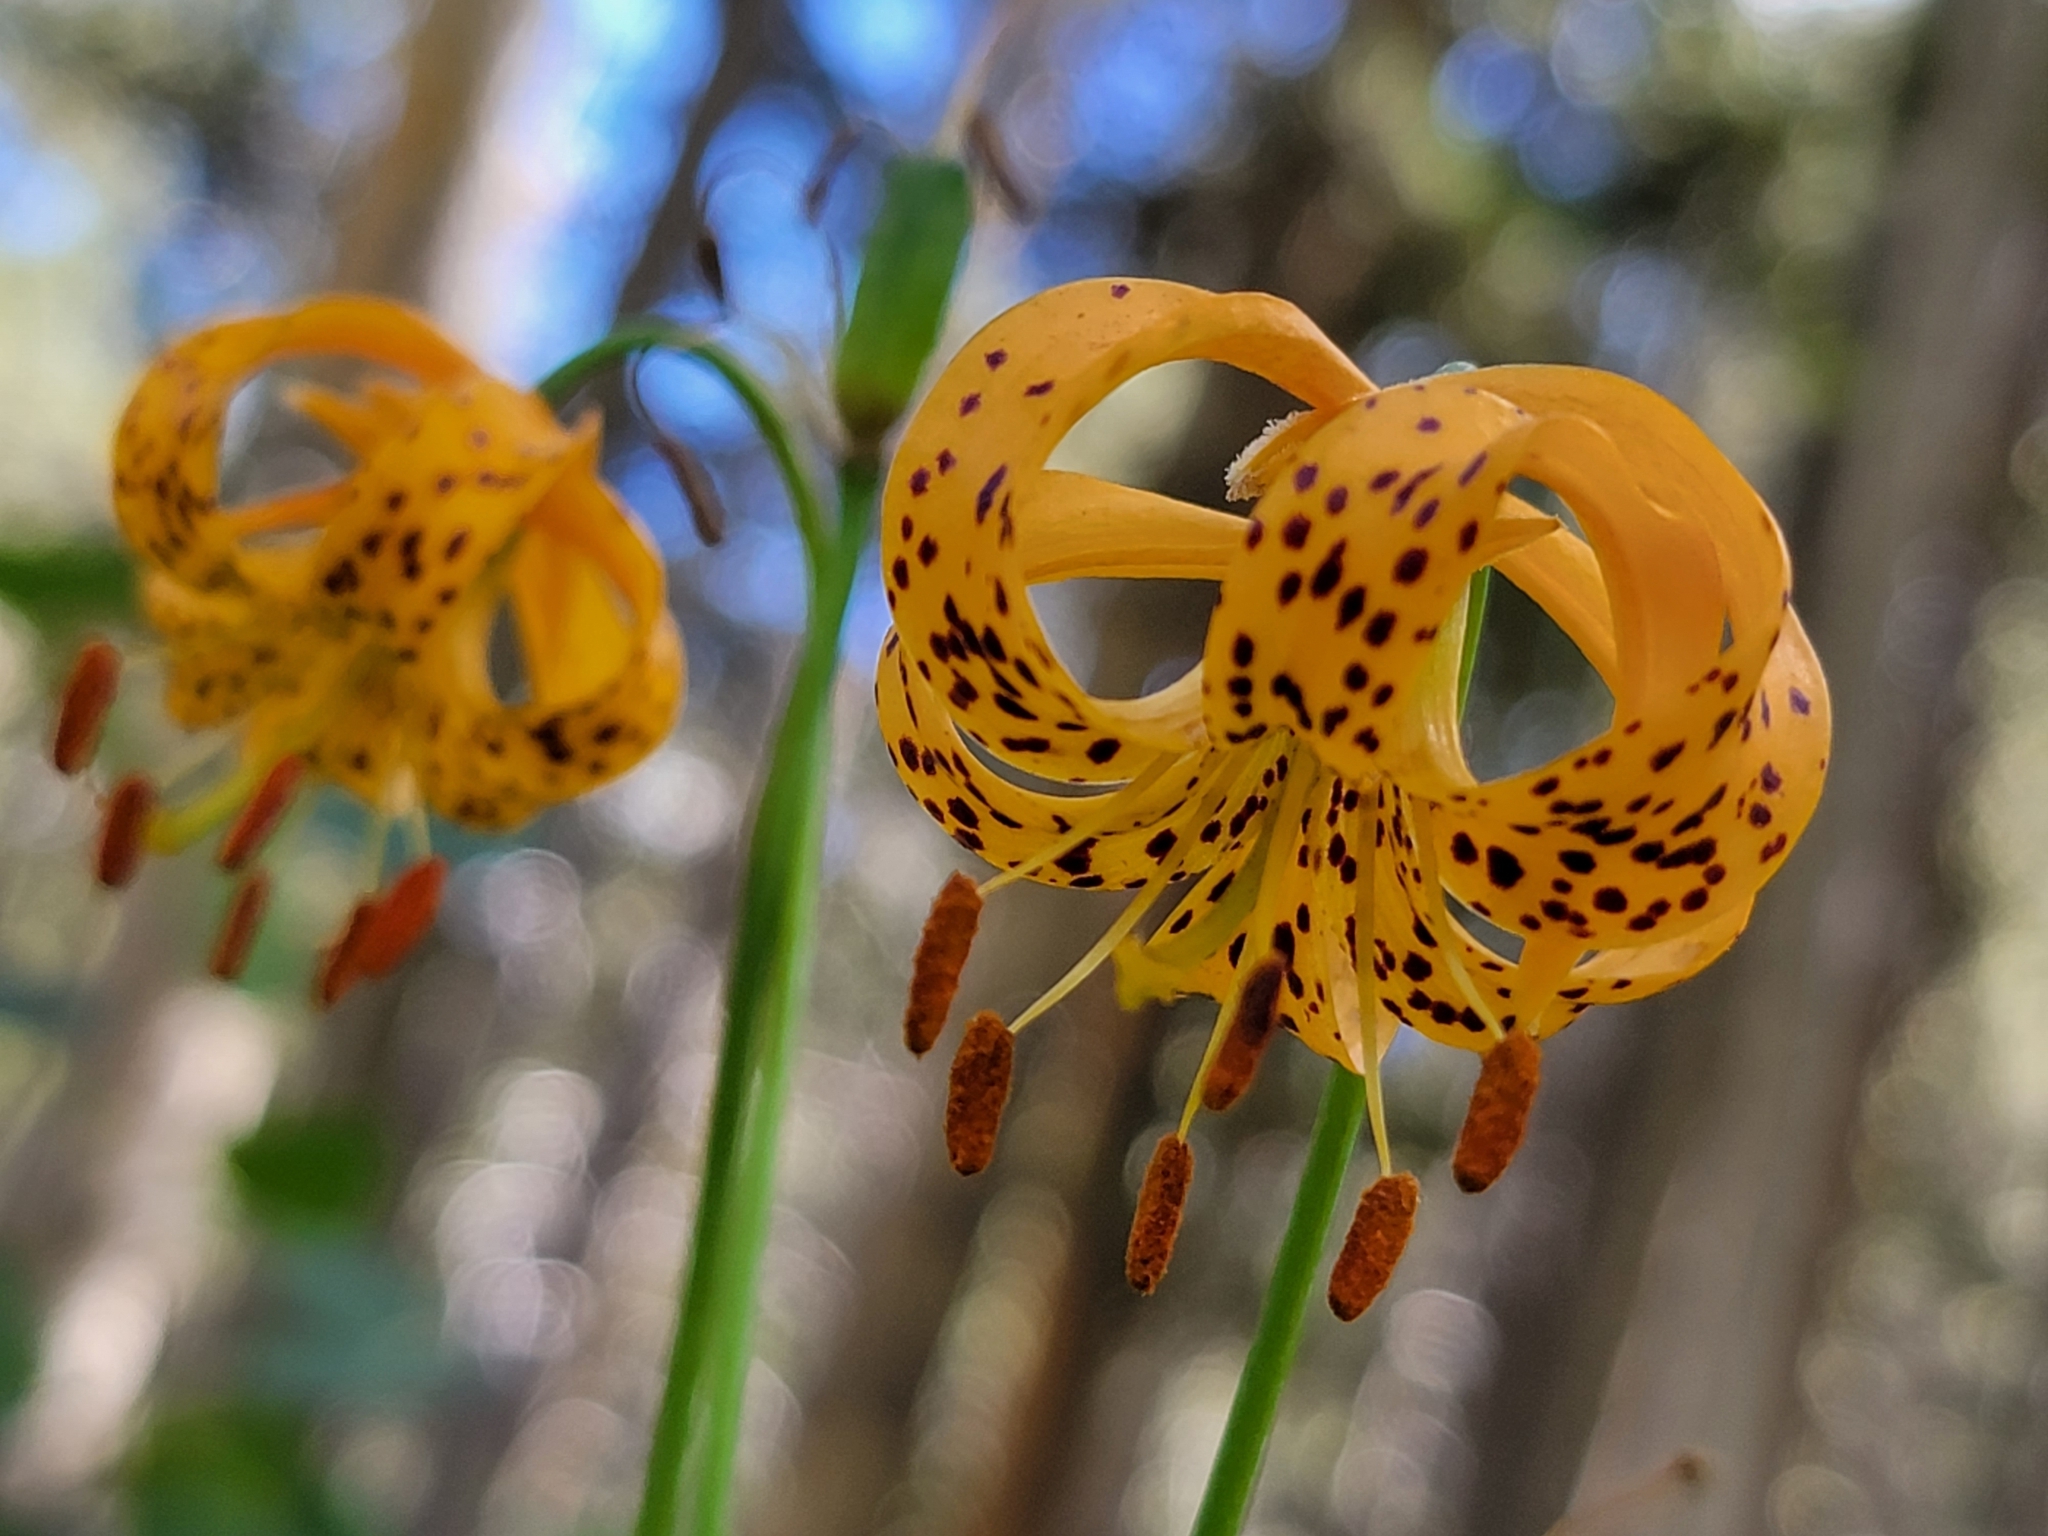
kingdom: Plantae
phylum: Tracheophyta
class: Liliopsida
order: Liliales
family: Liliaceae
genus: Lilium
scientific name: Lilium kelleyanum
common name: Kelley's lily
